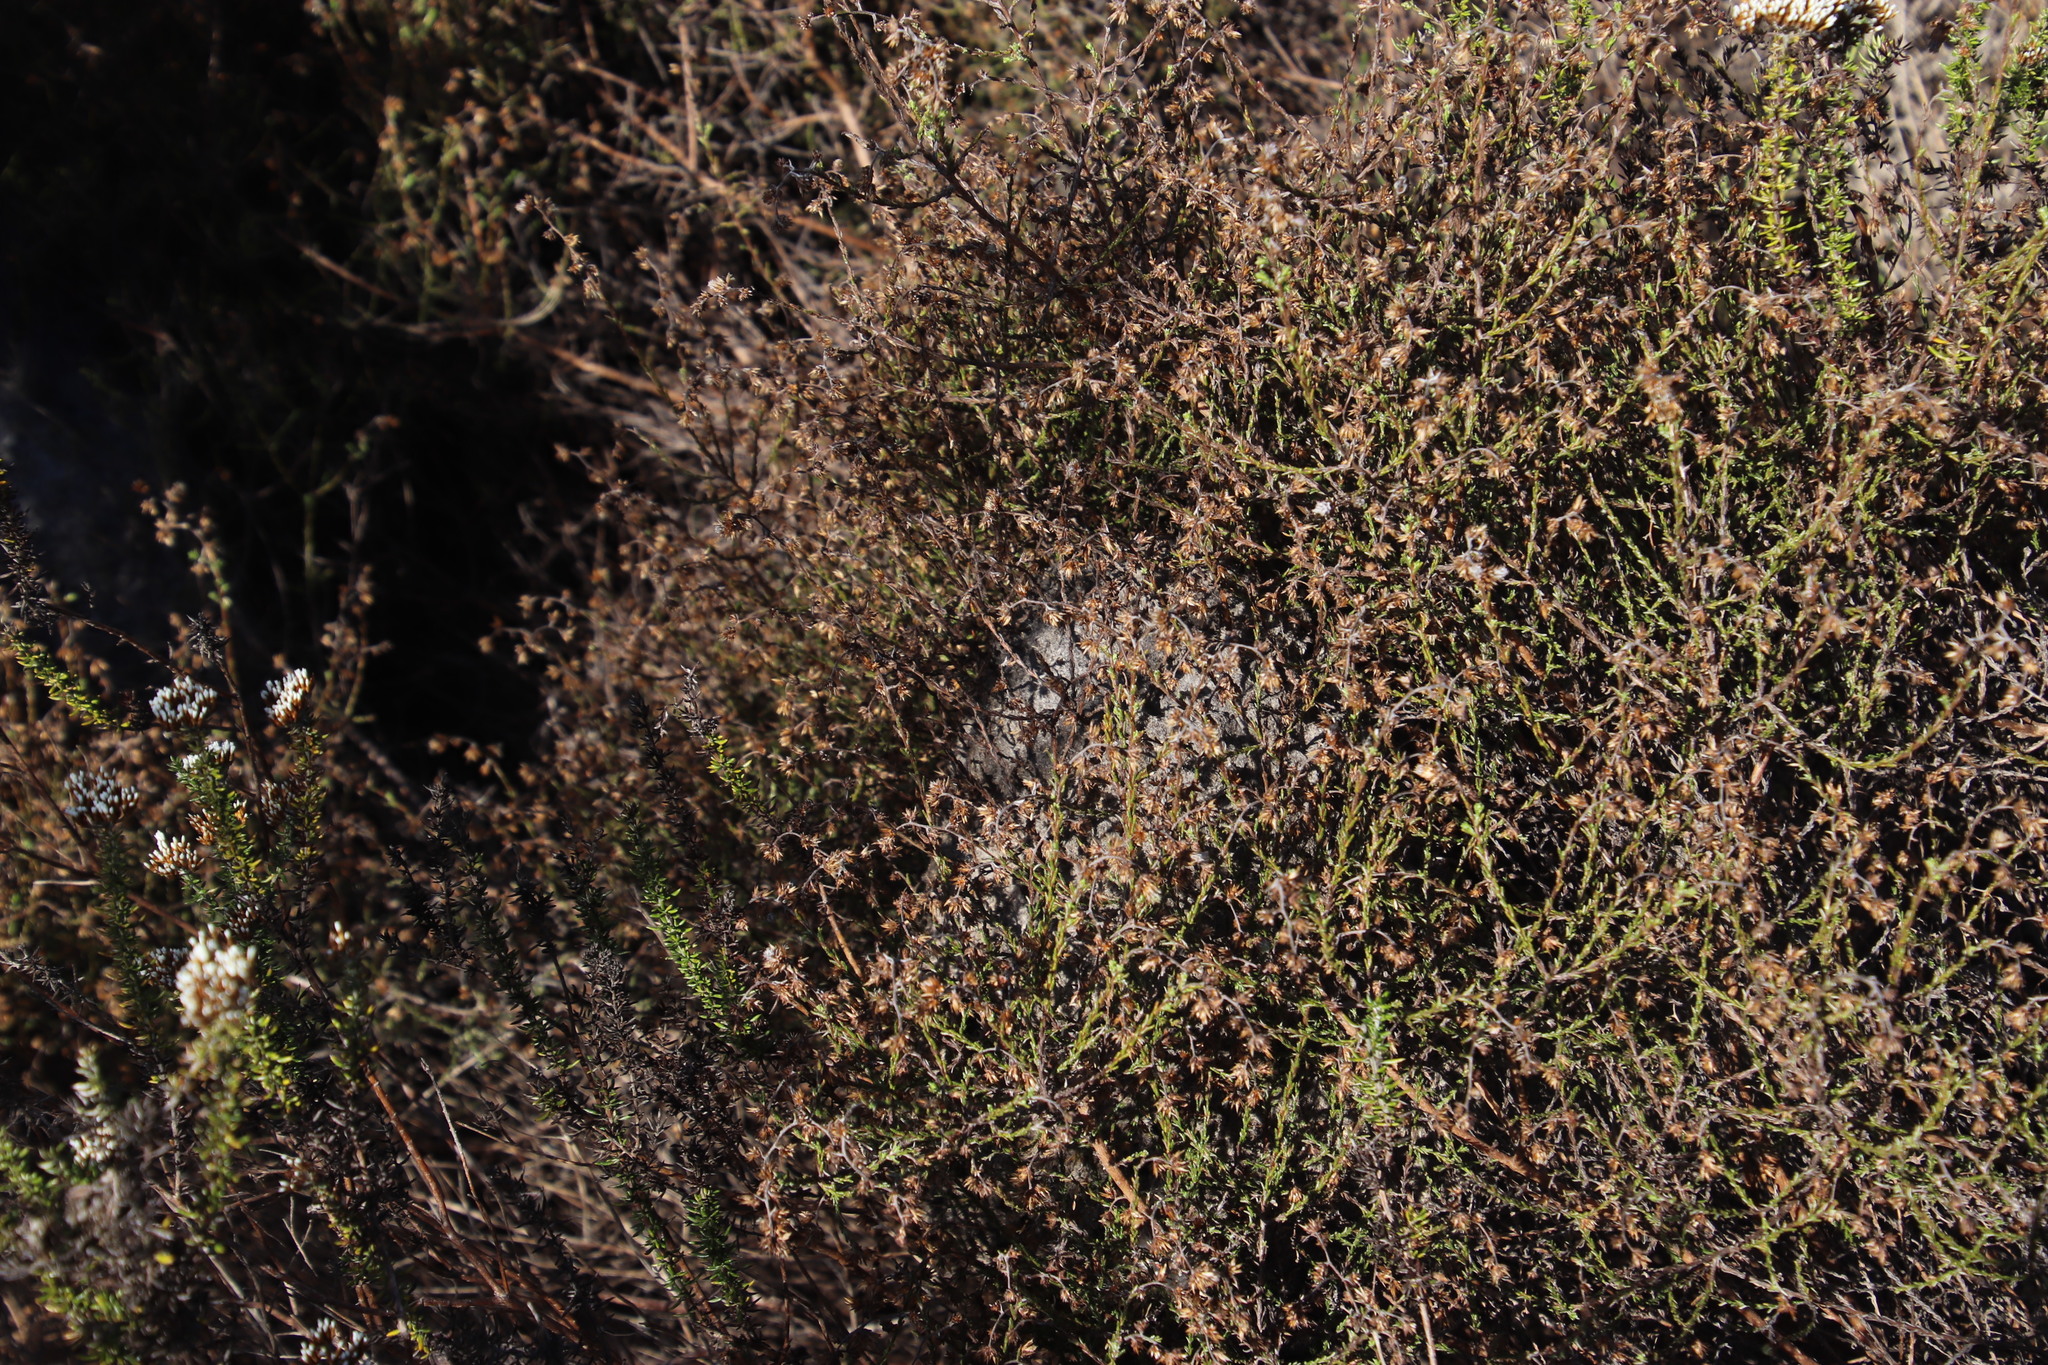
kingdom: Animalia
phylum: Arthropoda
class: Insecta
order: Hymenoptera
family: Formicidae
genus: Crematogaster
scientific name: Crematogaster peringueyi
